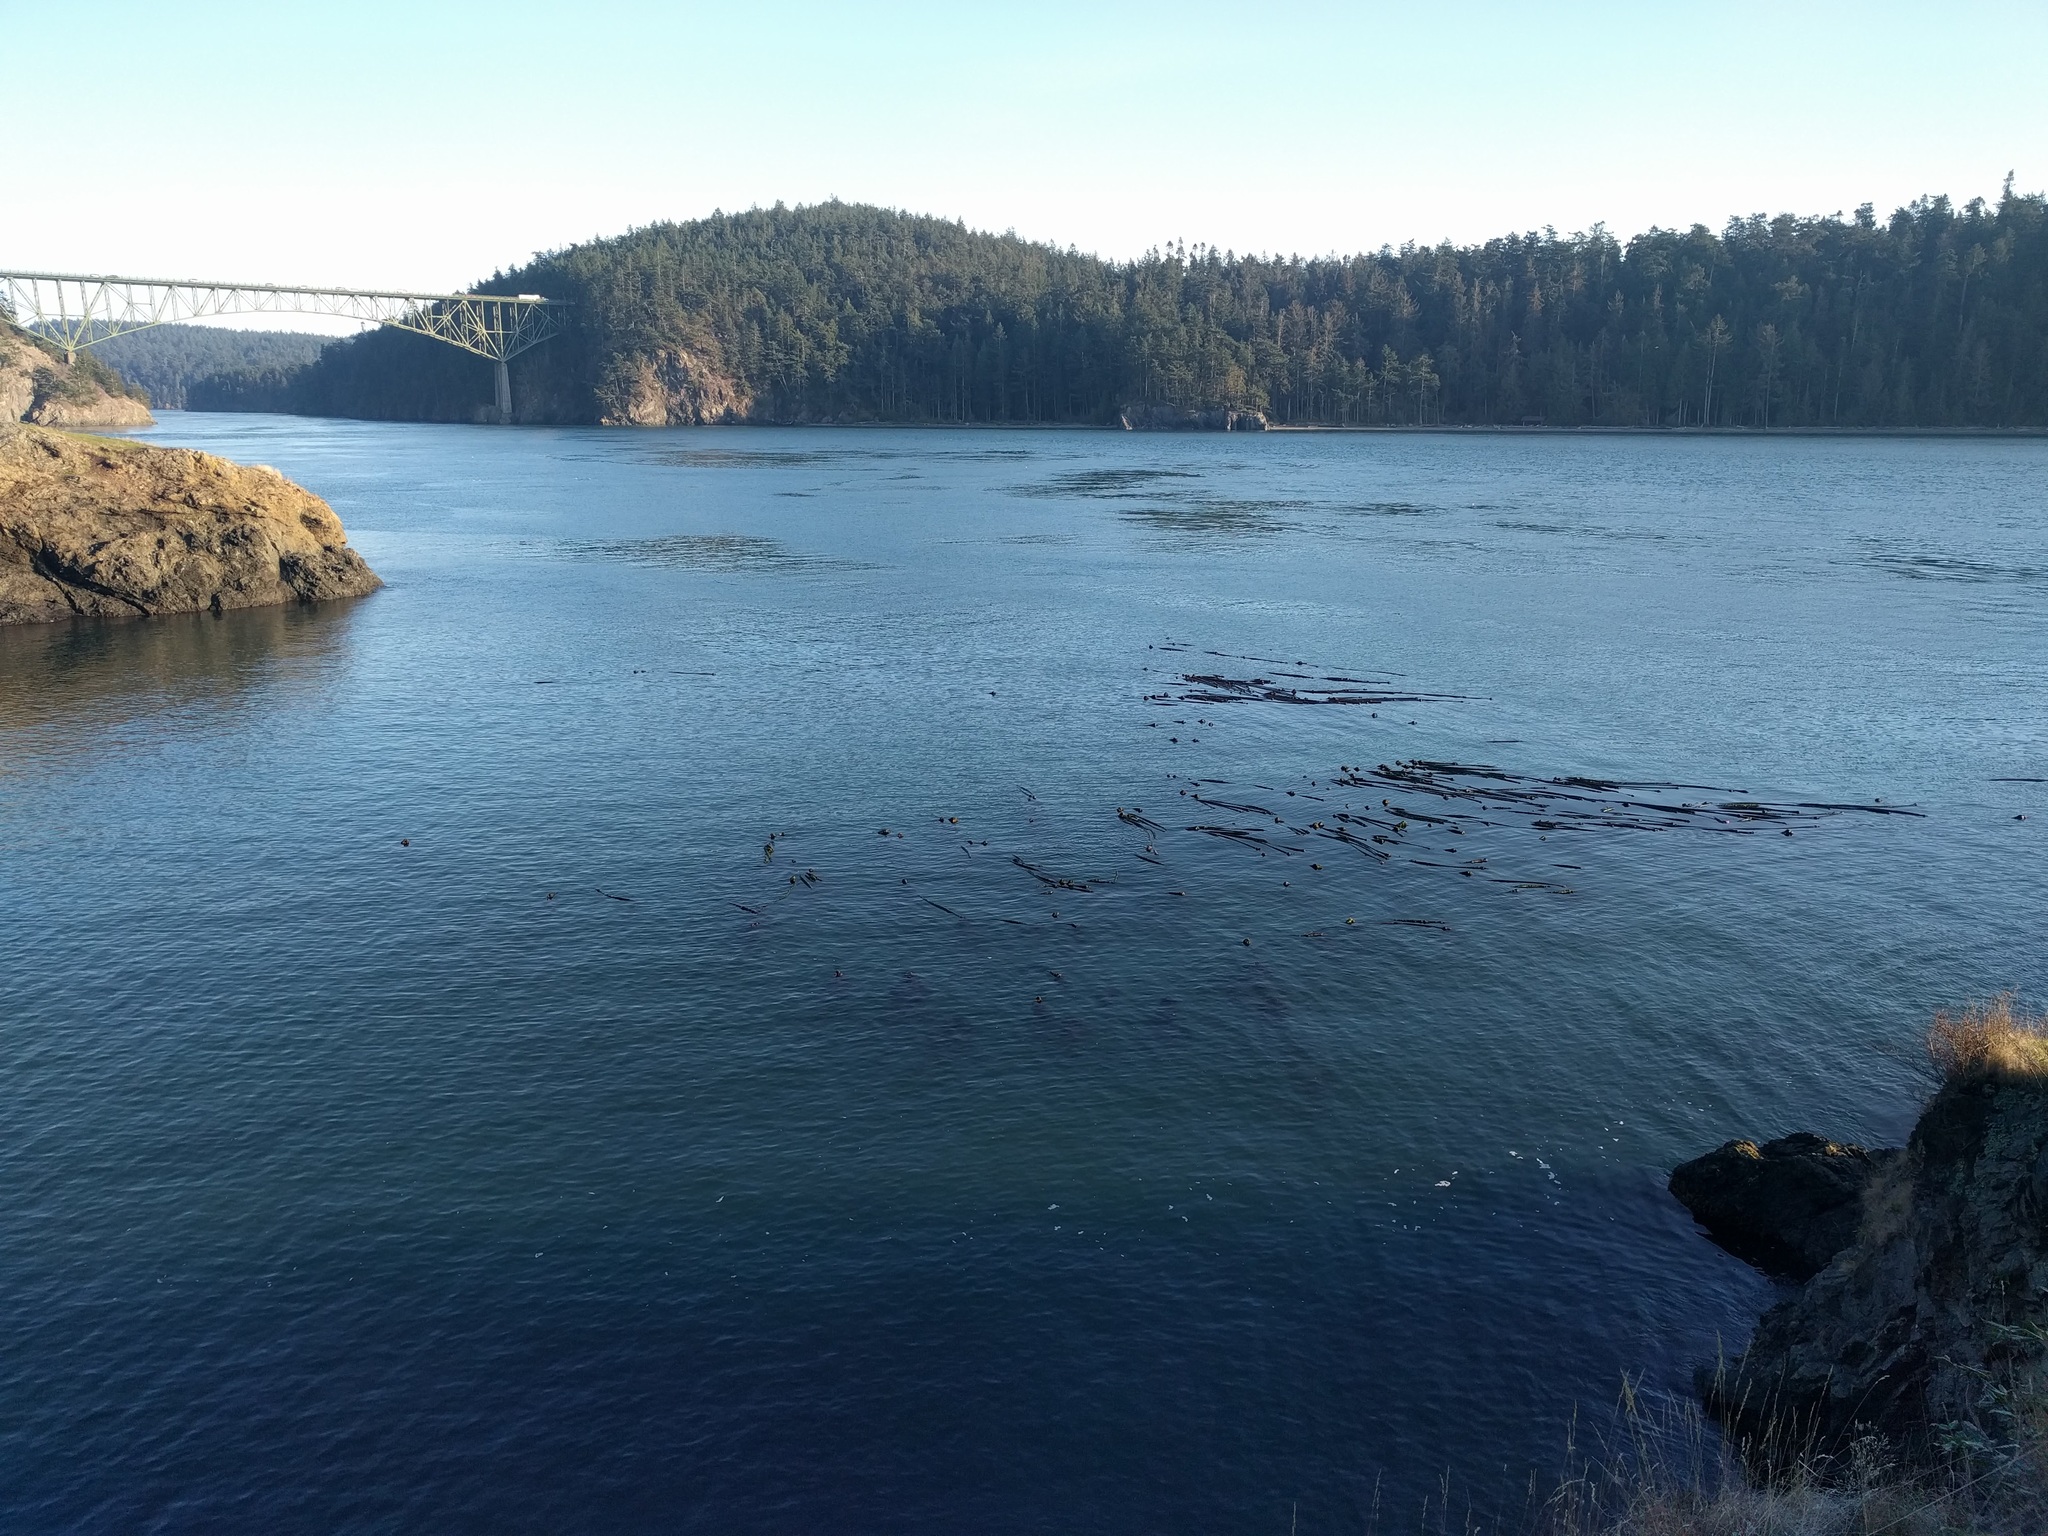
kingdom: Chromista
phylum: Ochrophyta
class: Phaeophyceae
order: Laminariales
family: Laminariaceae
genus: Nereocystis
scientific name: Nereocystis luetkeana
